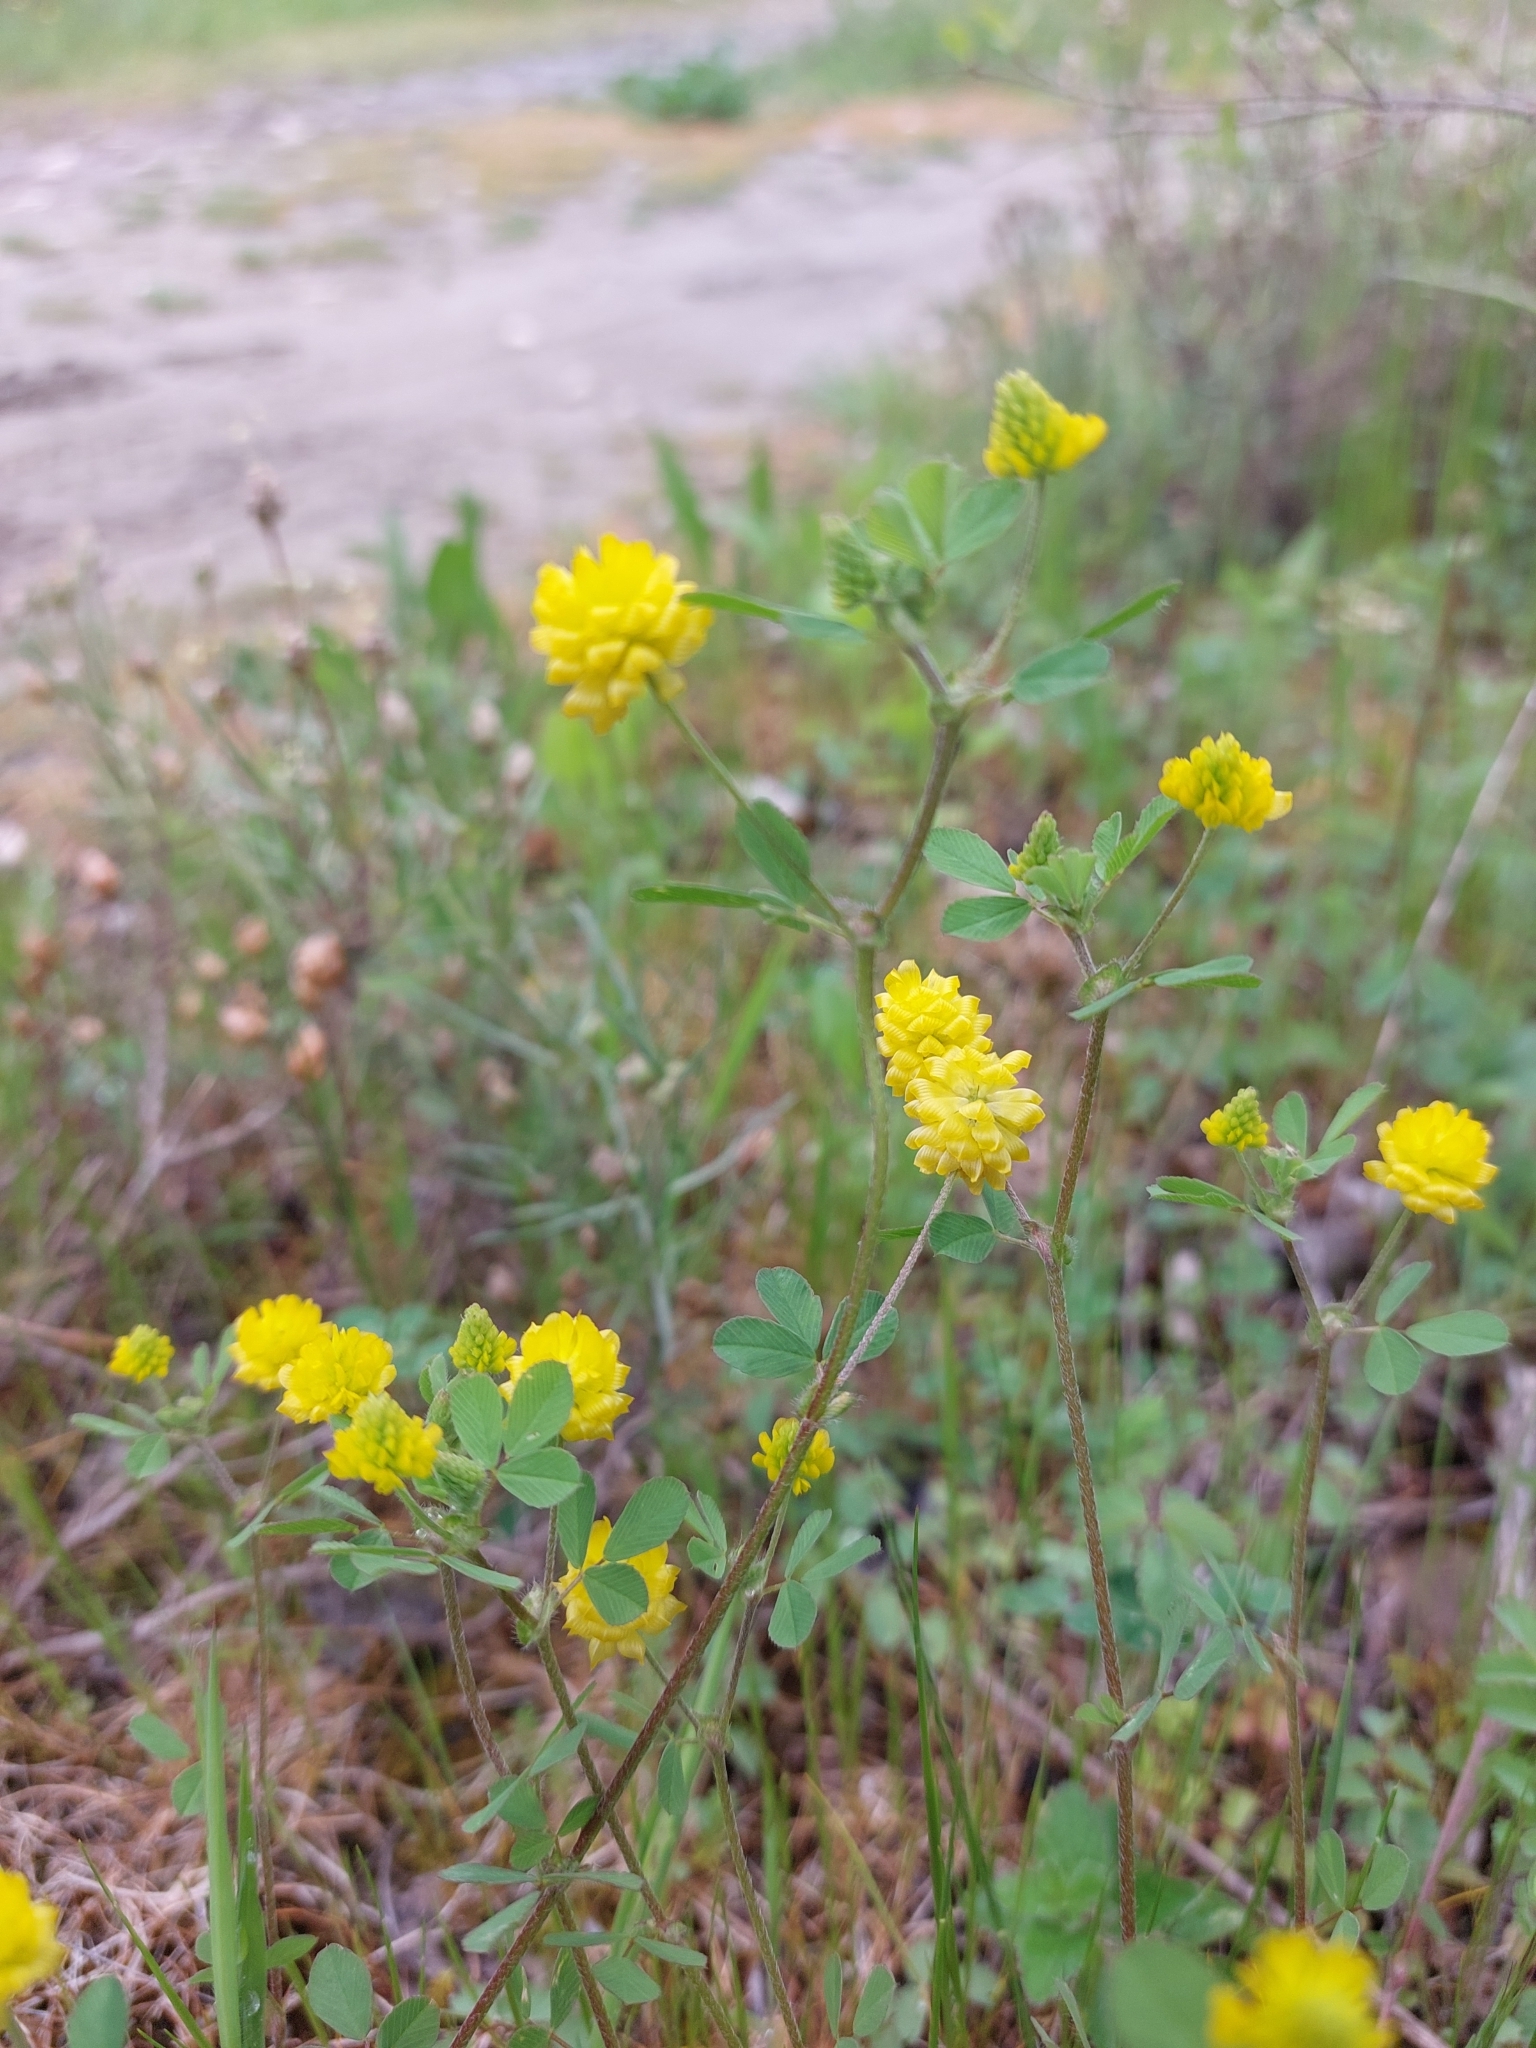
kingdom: Plantae
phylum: Tracheophyta
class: Magnoliopsida
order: Fabales
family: Fabaceae
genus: Trifolium
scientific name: Trifolium campestre
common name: Field clover
